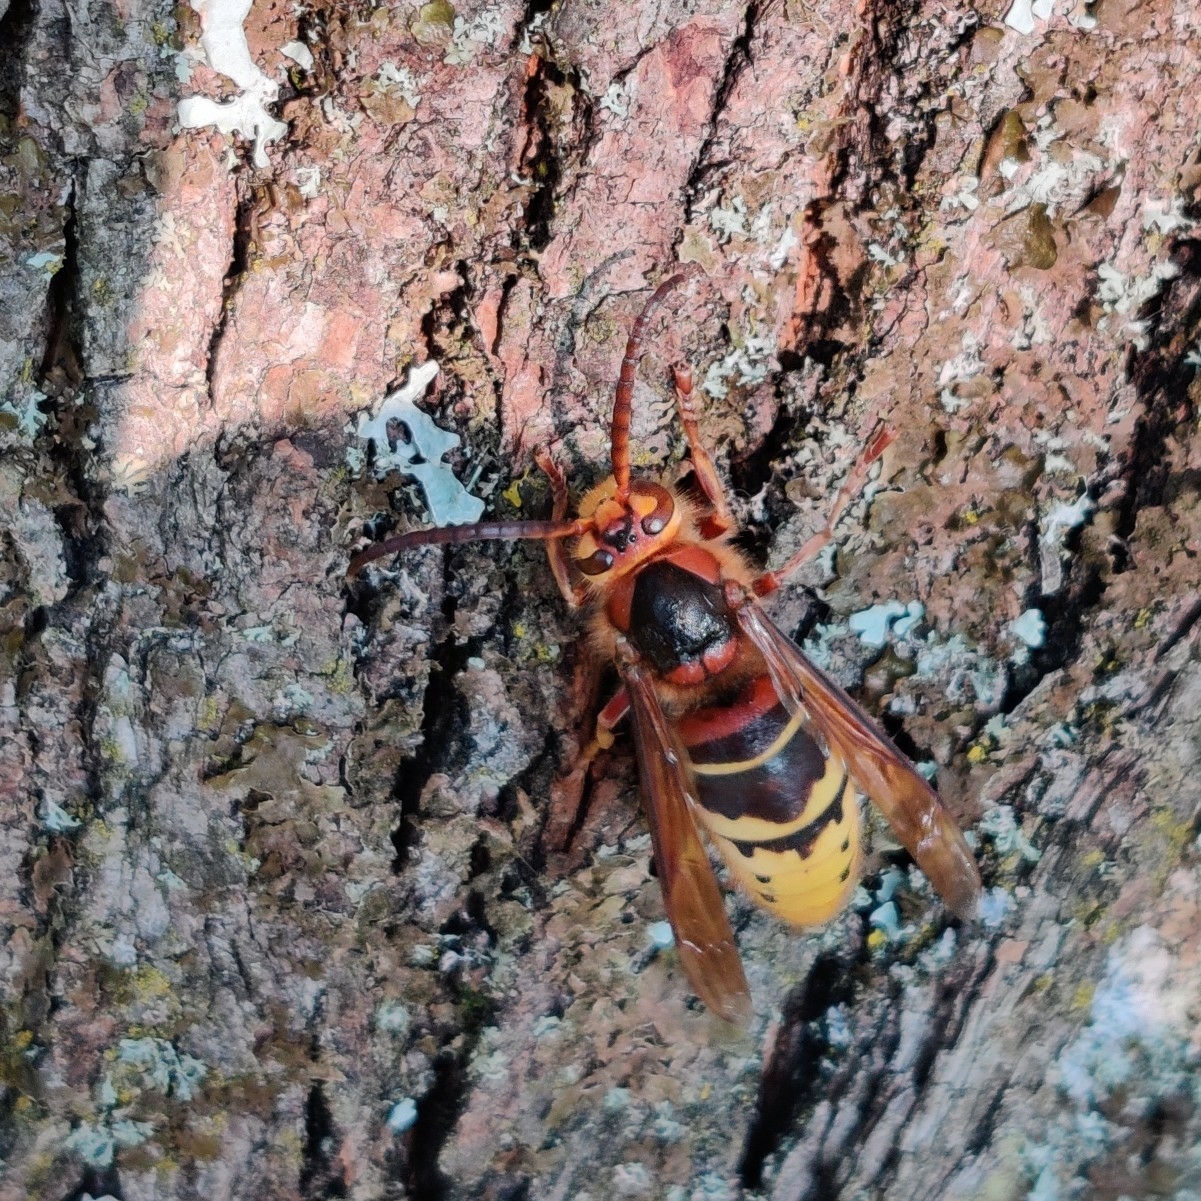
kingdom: Animalia
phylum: Arthropoda
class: Insecta
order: Hymenoptera
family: Vespidae
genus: Vespa
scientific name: Vespa crabro
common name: Hornet
